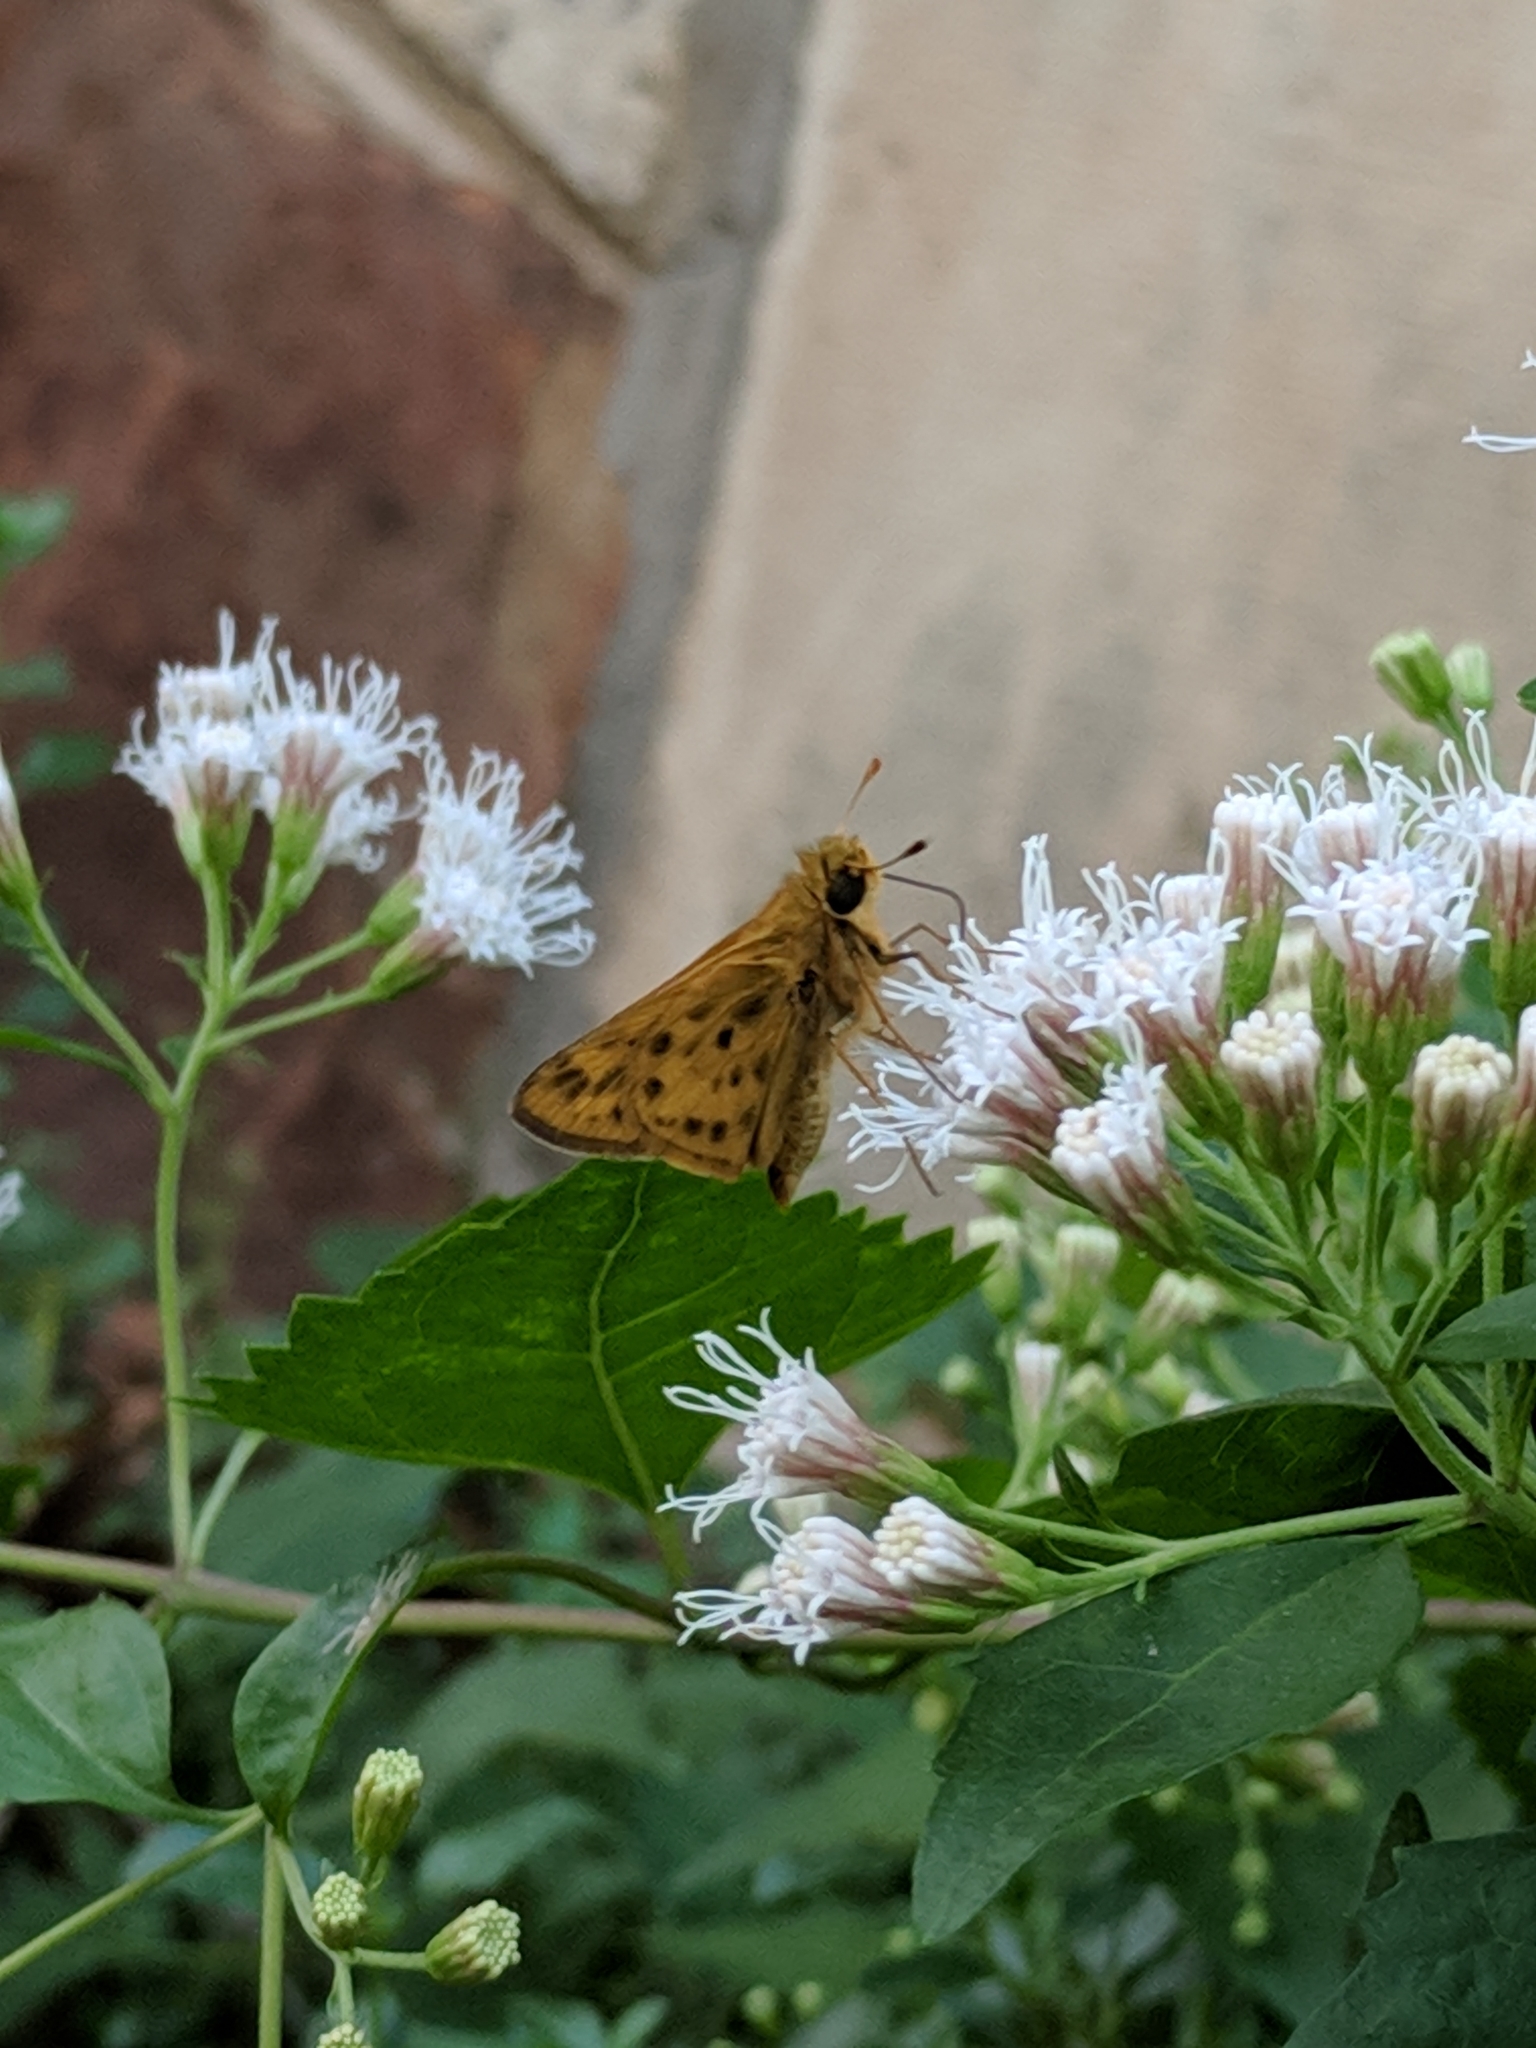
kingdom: Animalia
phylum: Arthropoda
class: Insecta
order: Lepidoptera
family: Hesperiidae
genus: Hylephila
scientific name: Hylephila phyleus
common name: Fiery skipper
